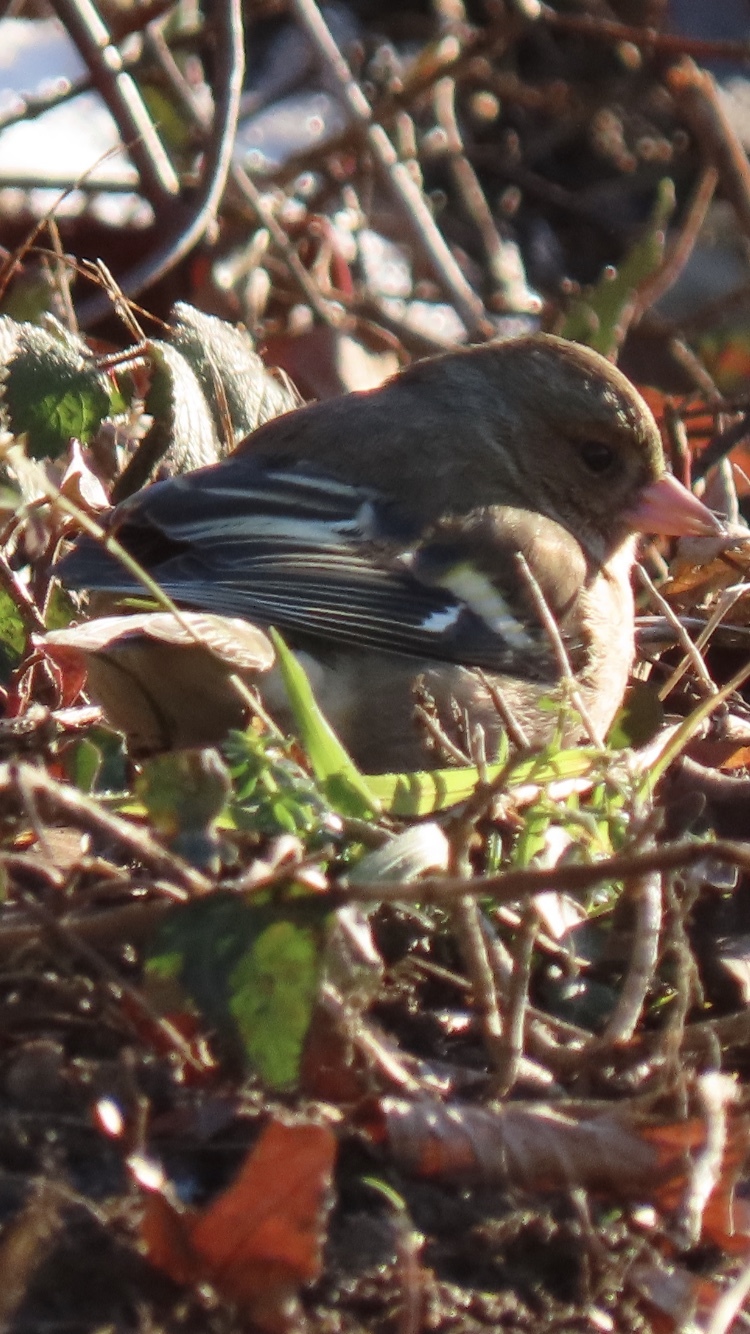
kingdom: Animalia
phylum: Chordata
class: Aves
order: Passeriformes
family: Fringillidae
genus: Fringilla
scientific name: Fringilla coelebs
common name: Common chaffinch
